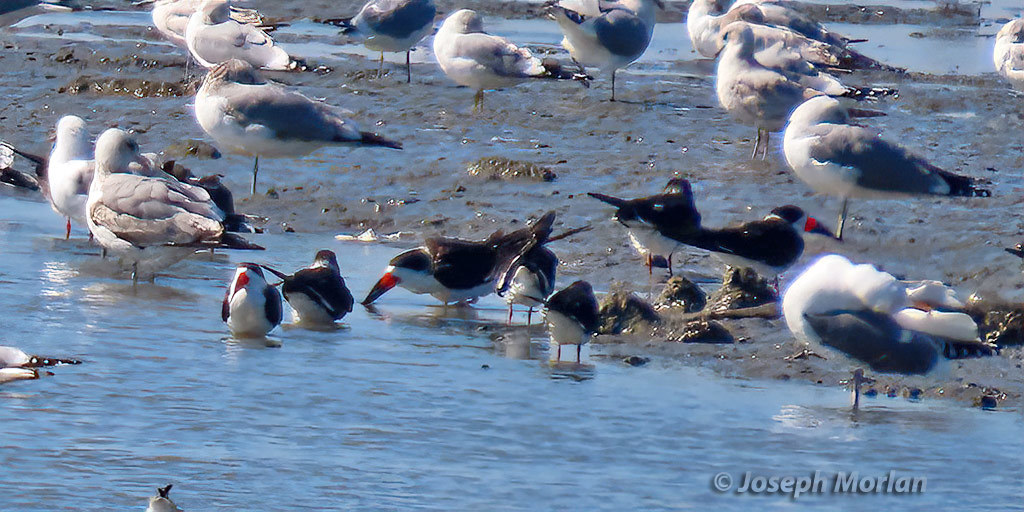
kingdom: Animalia
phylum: Chordata
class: Aves
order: Charadriiformes
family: Laridae
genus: Rynchops
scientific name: Rynchops niger
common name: Black skimmer
